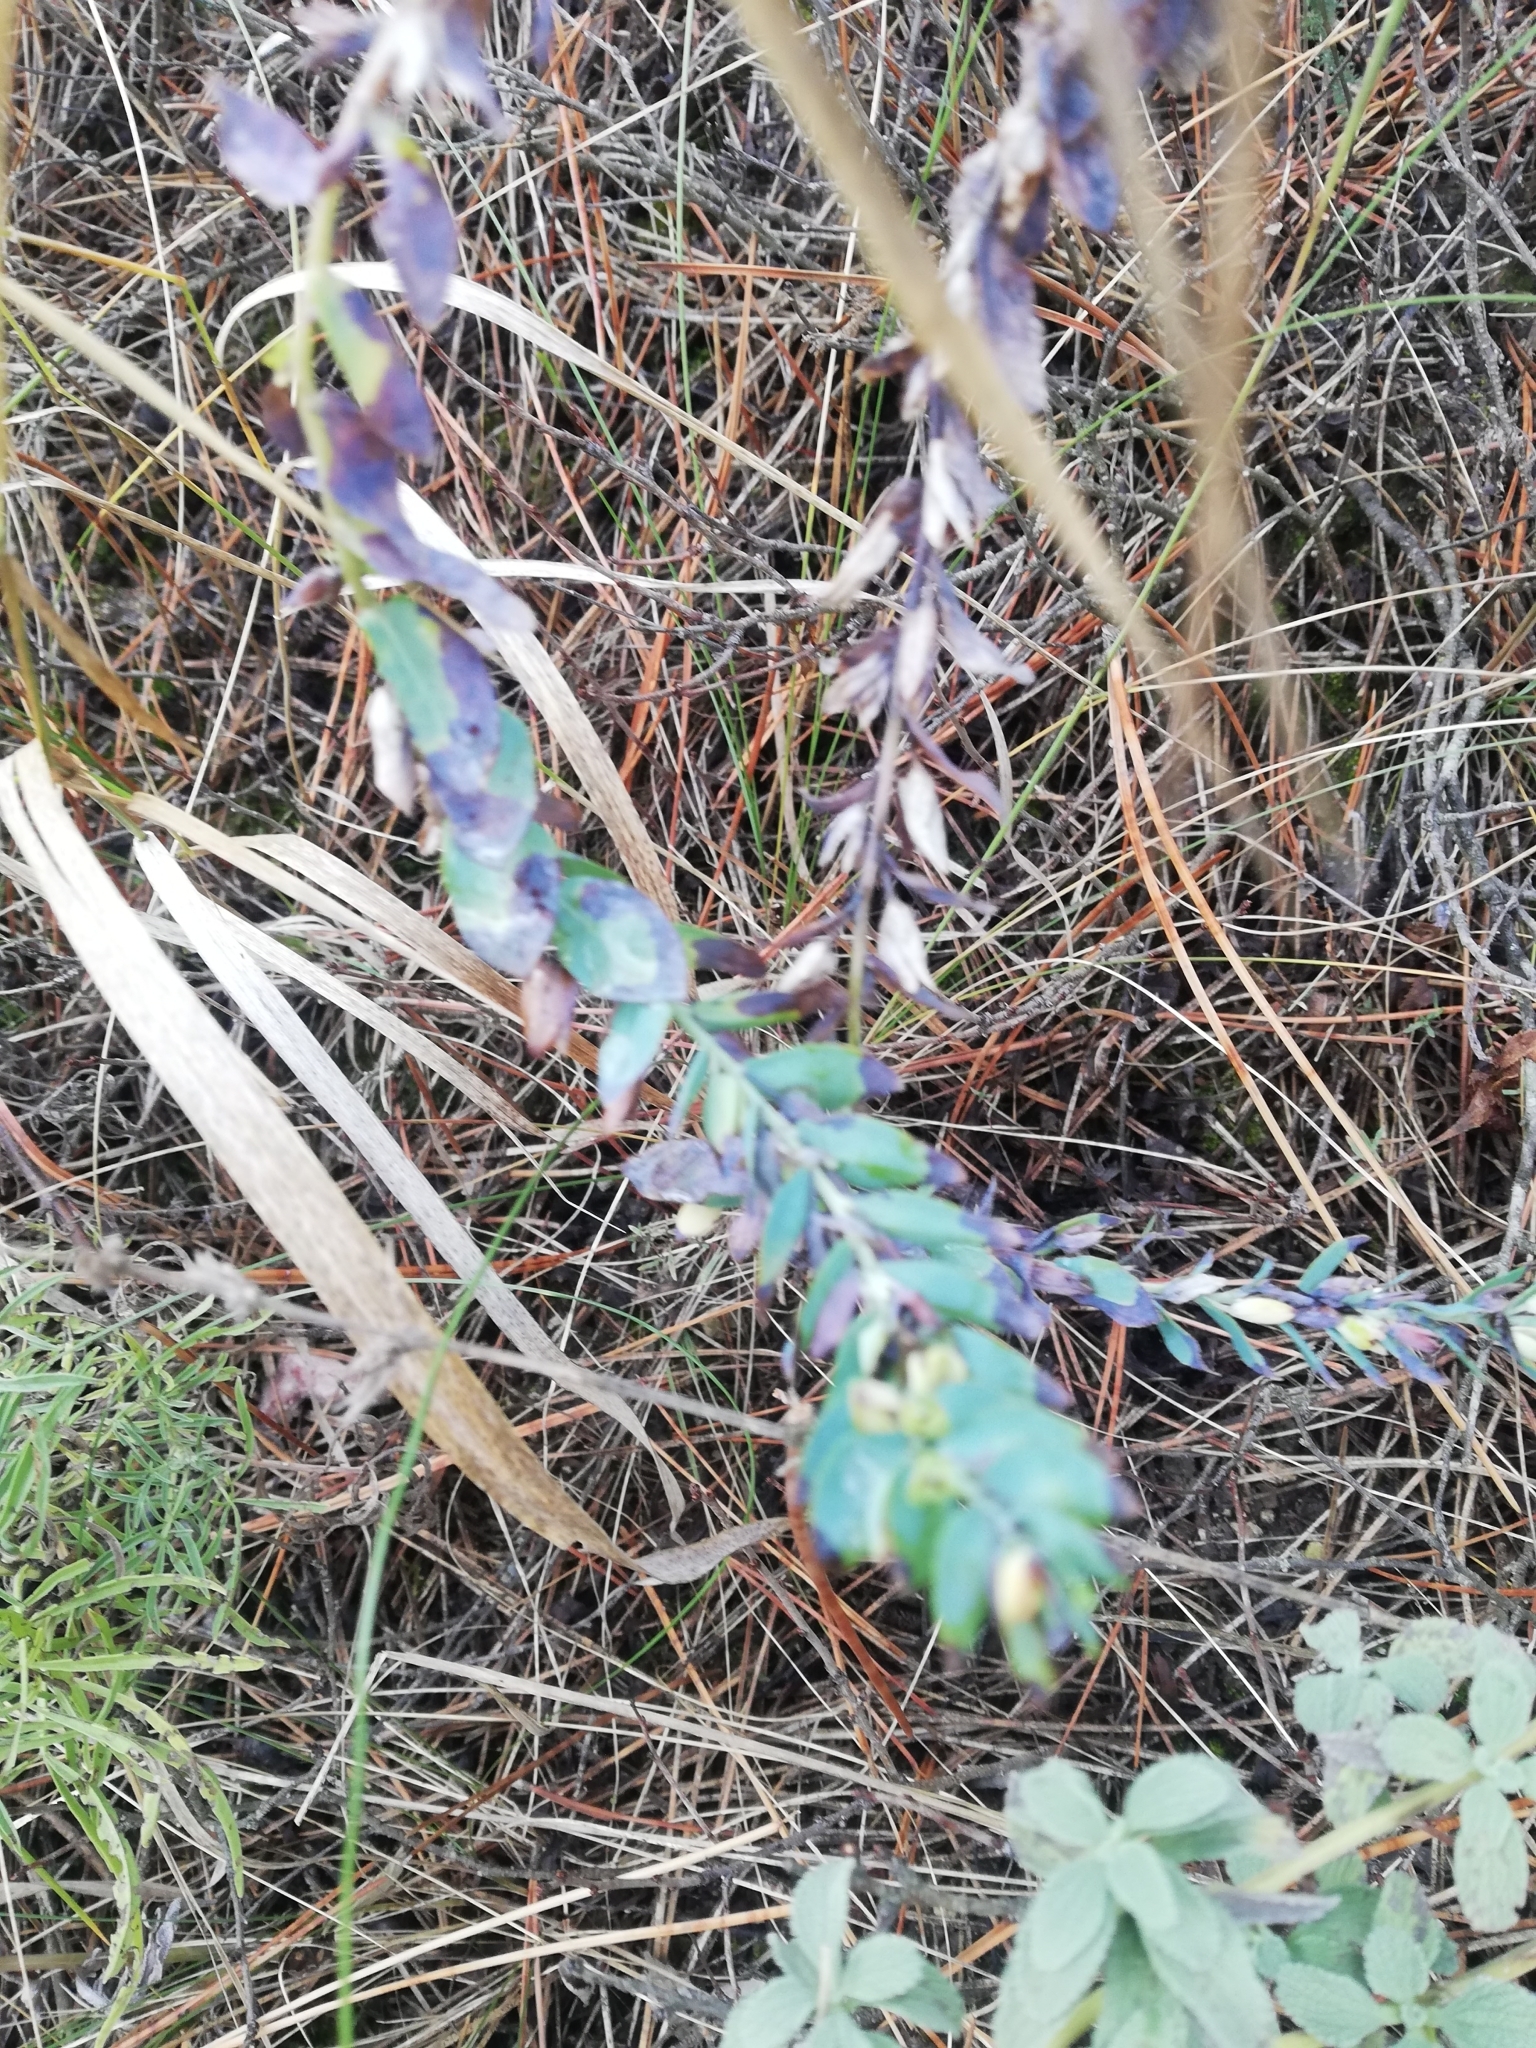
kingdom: Plantae
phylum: Tracheophyta
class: Magnoliopsida
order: Boraginales
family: Boraginaceae
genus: Cerinthe
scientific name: Cerinthe minor
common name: Lesser honeywort
